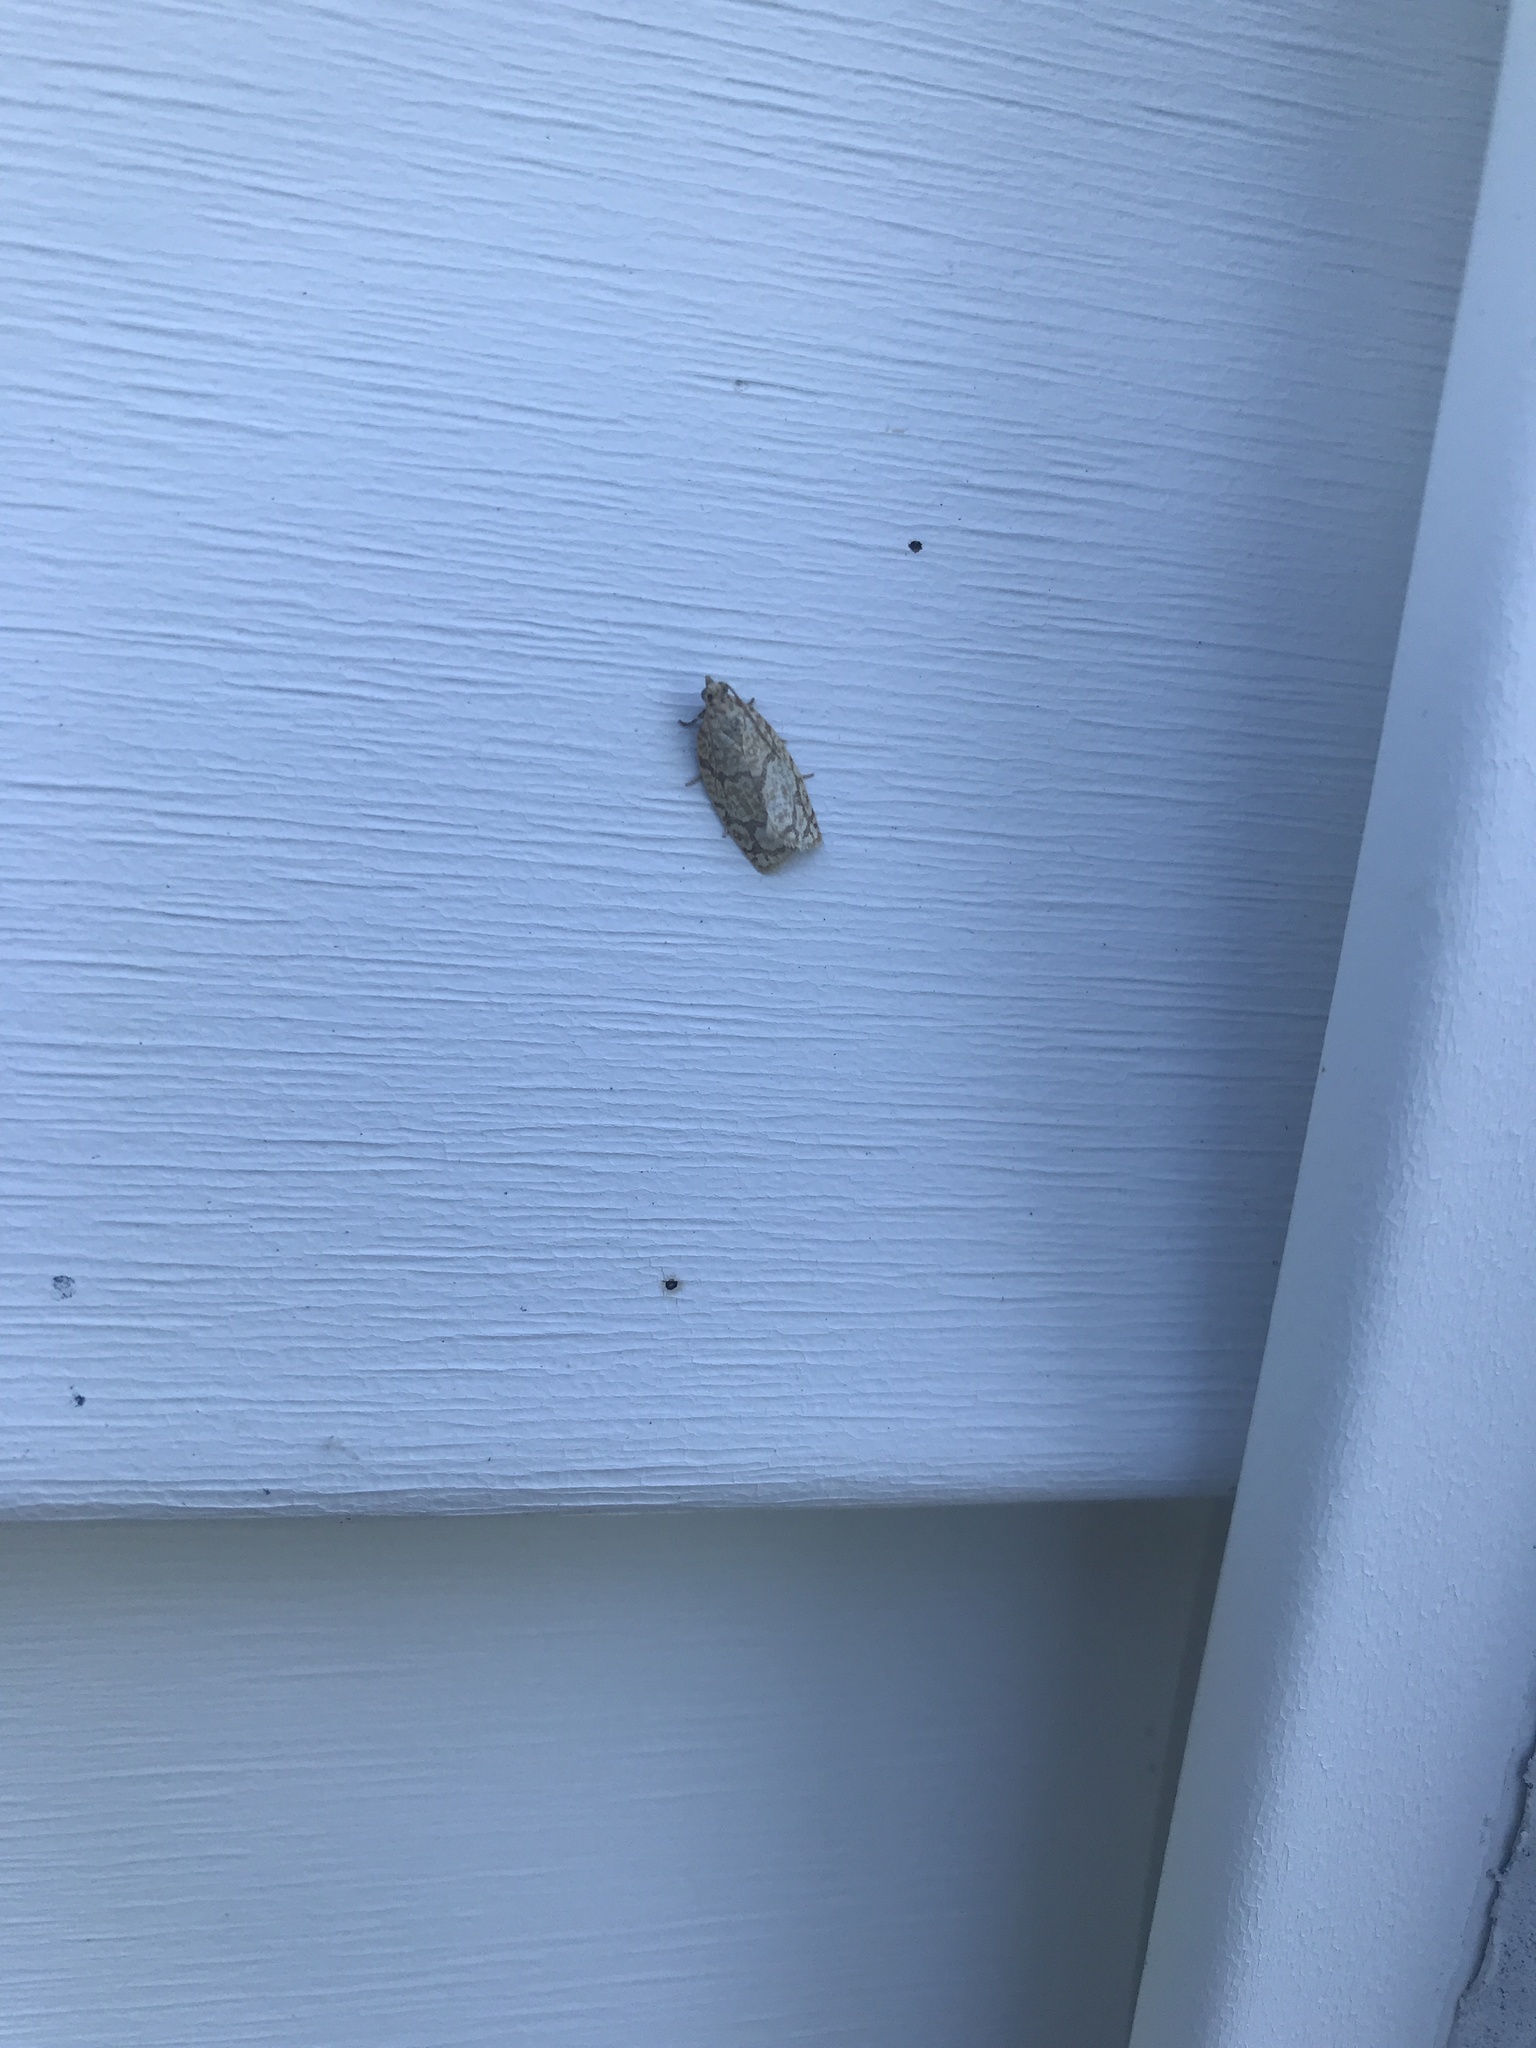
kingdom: Animalia
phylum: Arthropoda
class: Insecta
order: Lepidoptera
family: Tortricidae
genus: Argyrotaenia
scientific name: Argyrotaenia quercifoliana
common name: Yellow-winged oak leafroller moth
